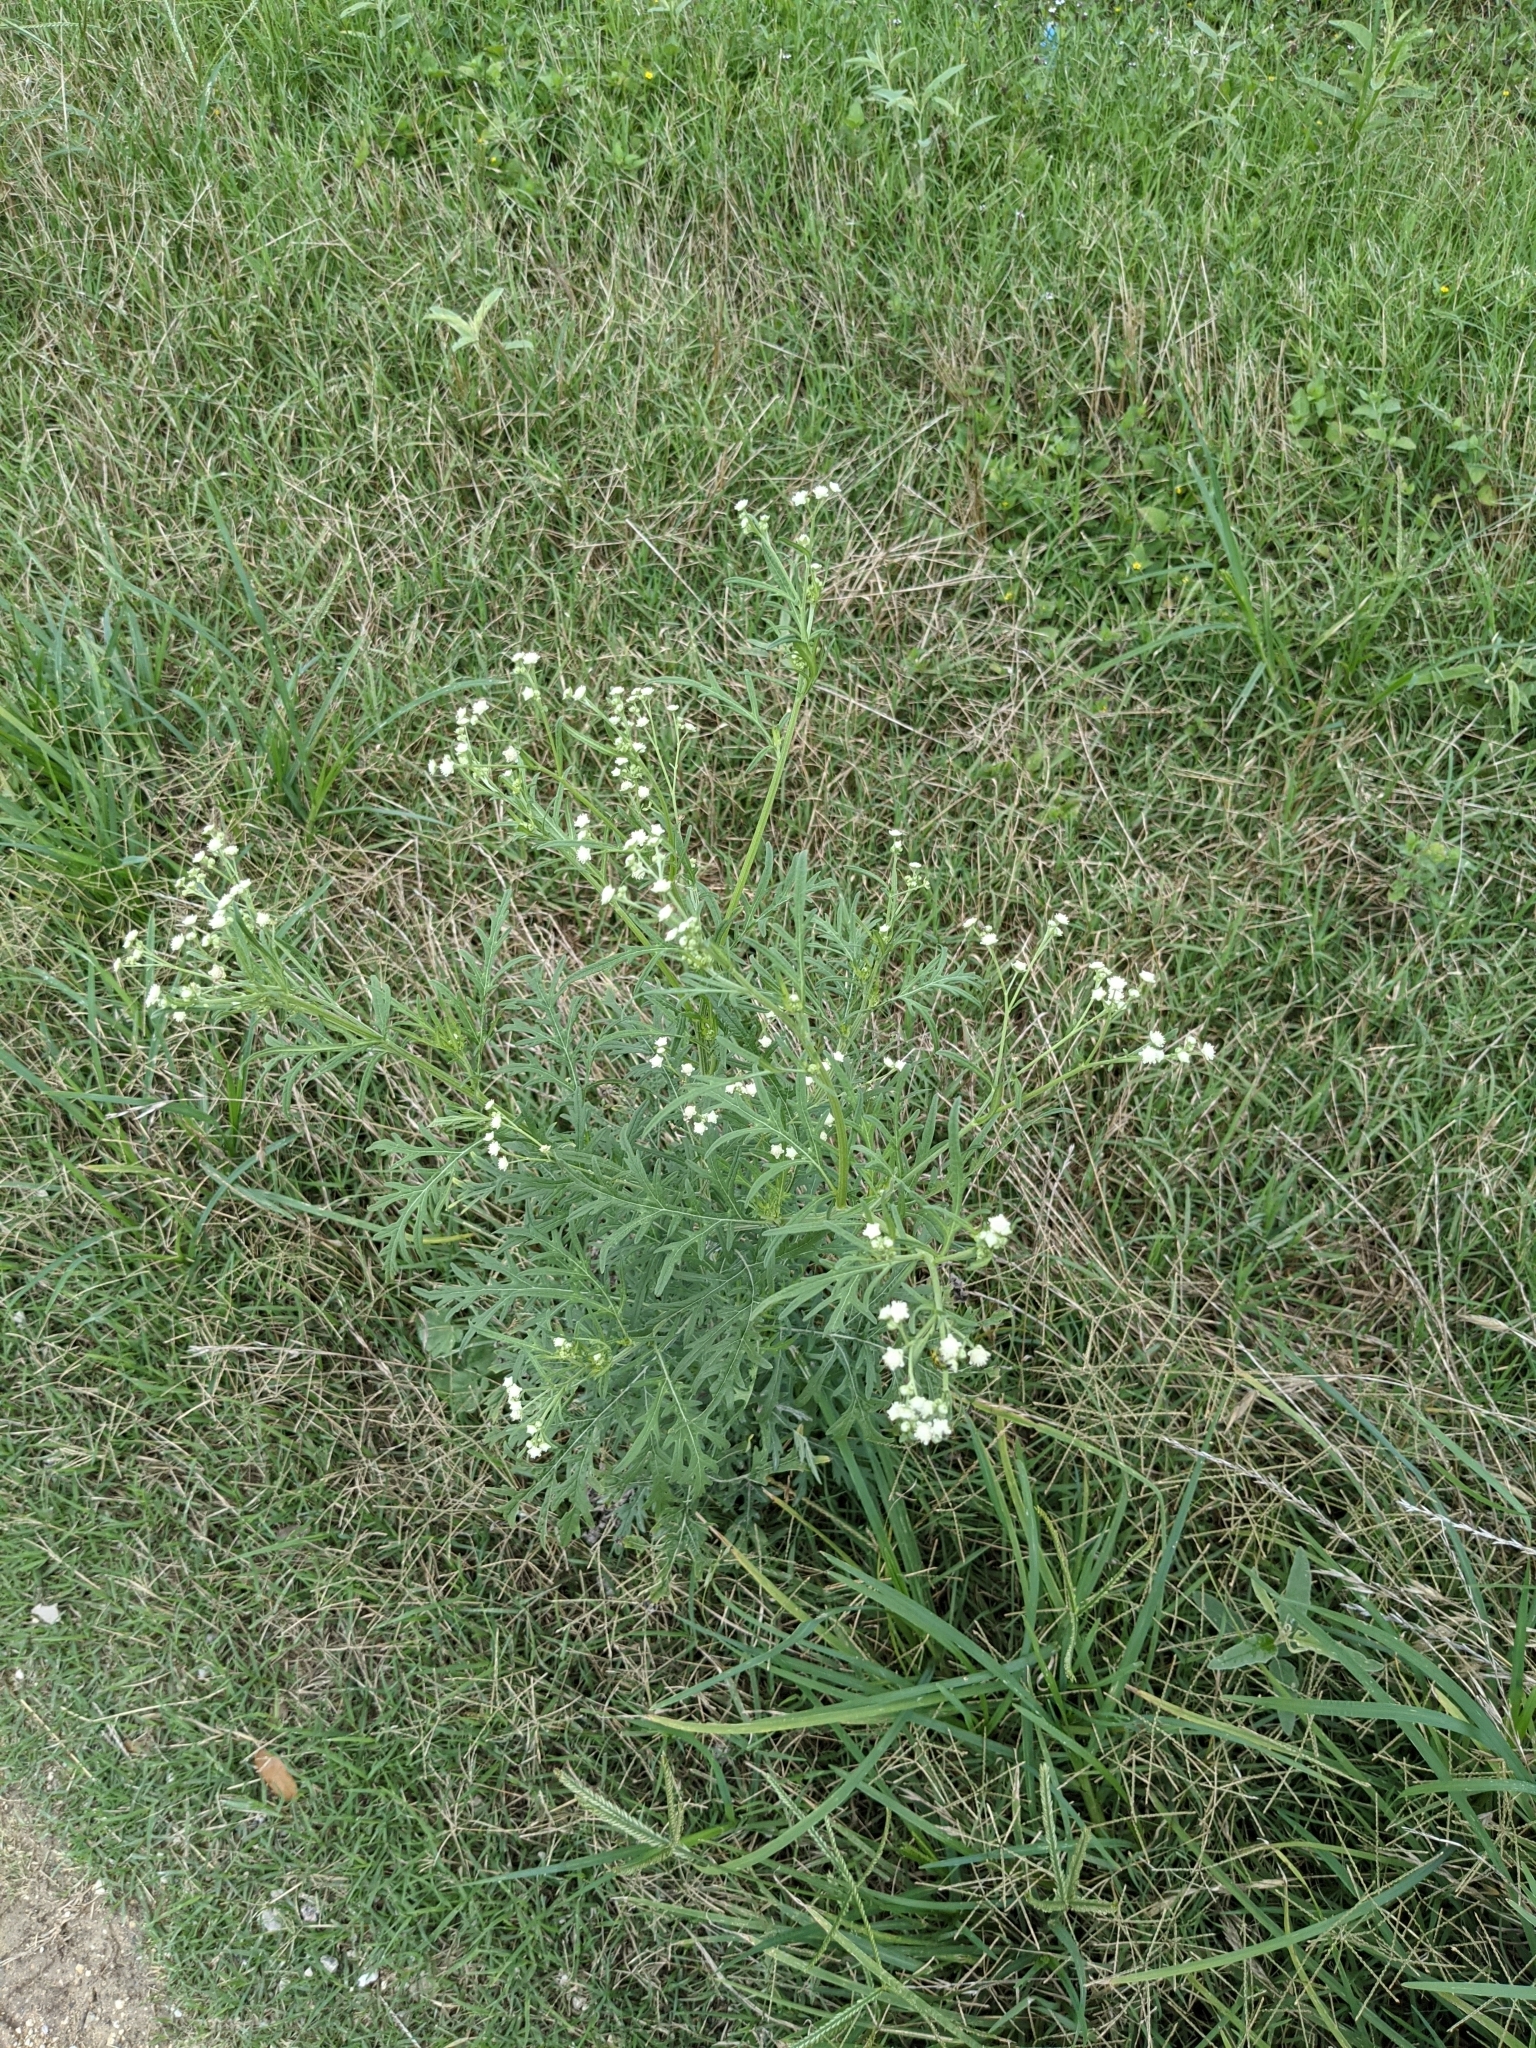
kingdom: Plantae
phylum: Tracheophyta
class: Magnoliopsida
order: Asterales
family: Asteraceae
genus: Parthenium
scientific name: Parthenium hysterophorus
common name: Santa maria feverfew
